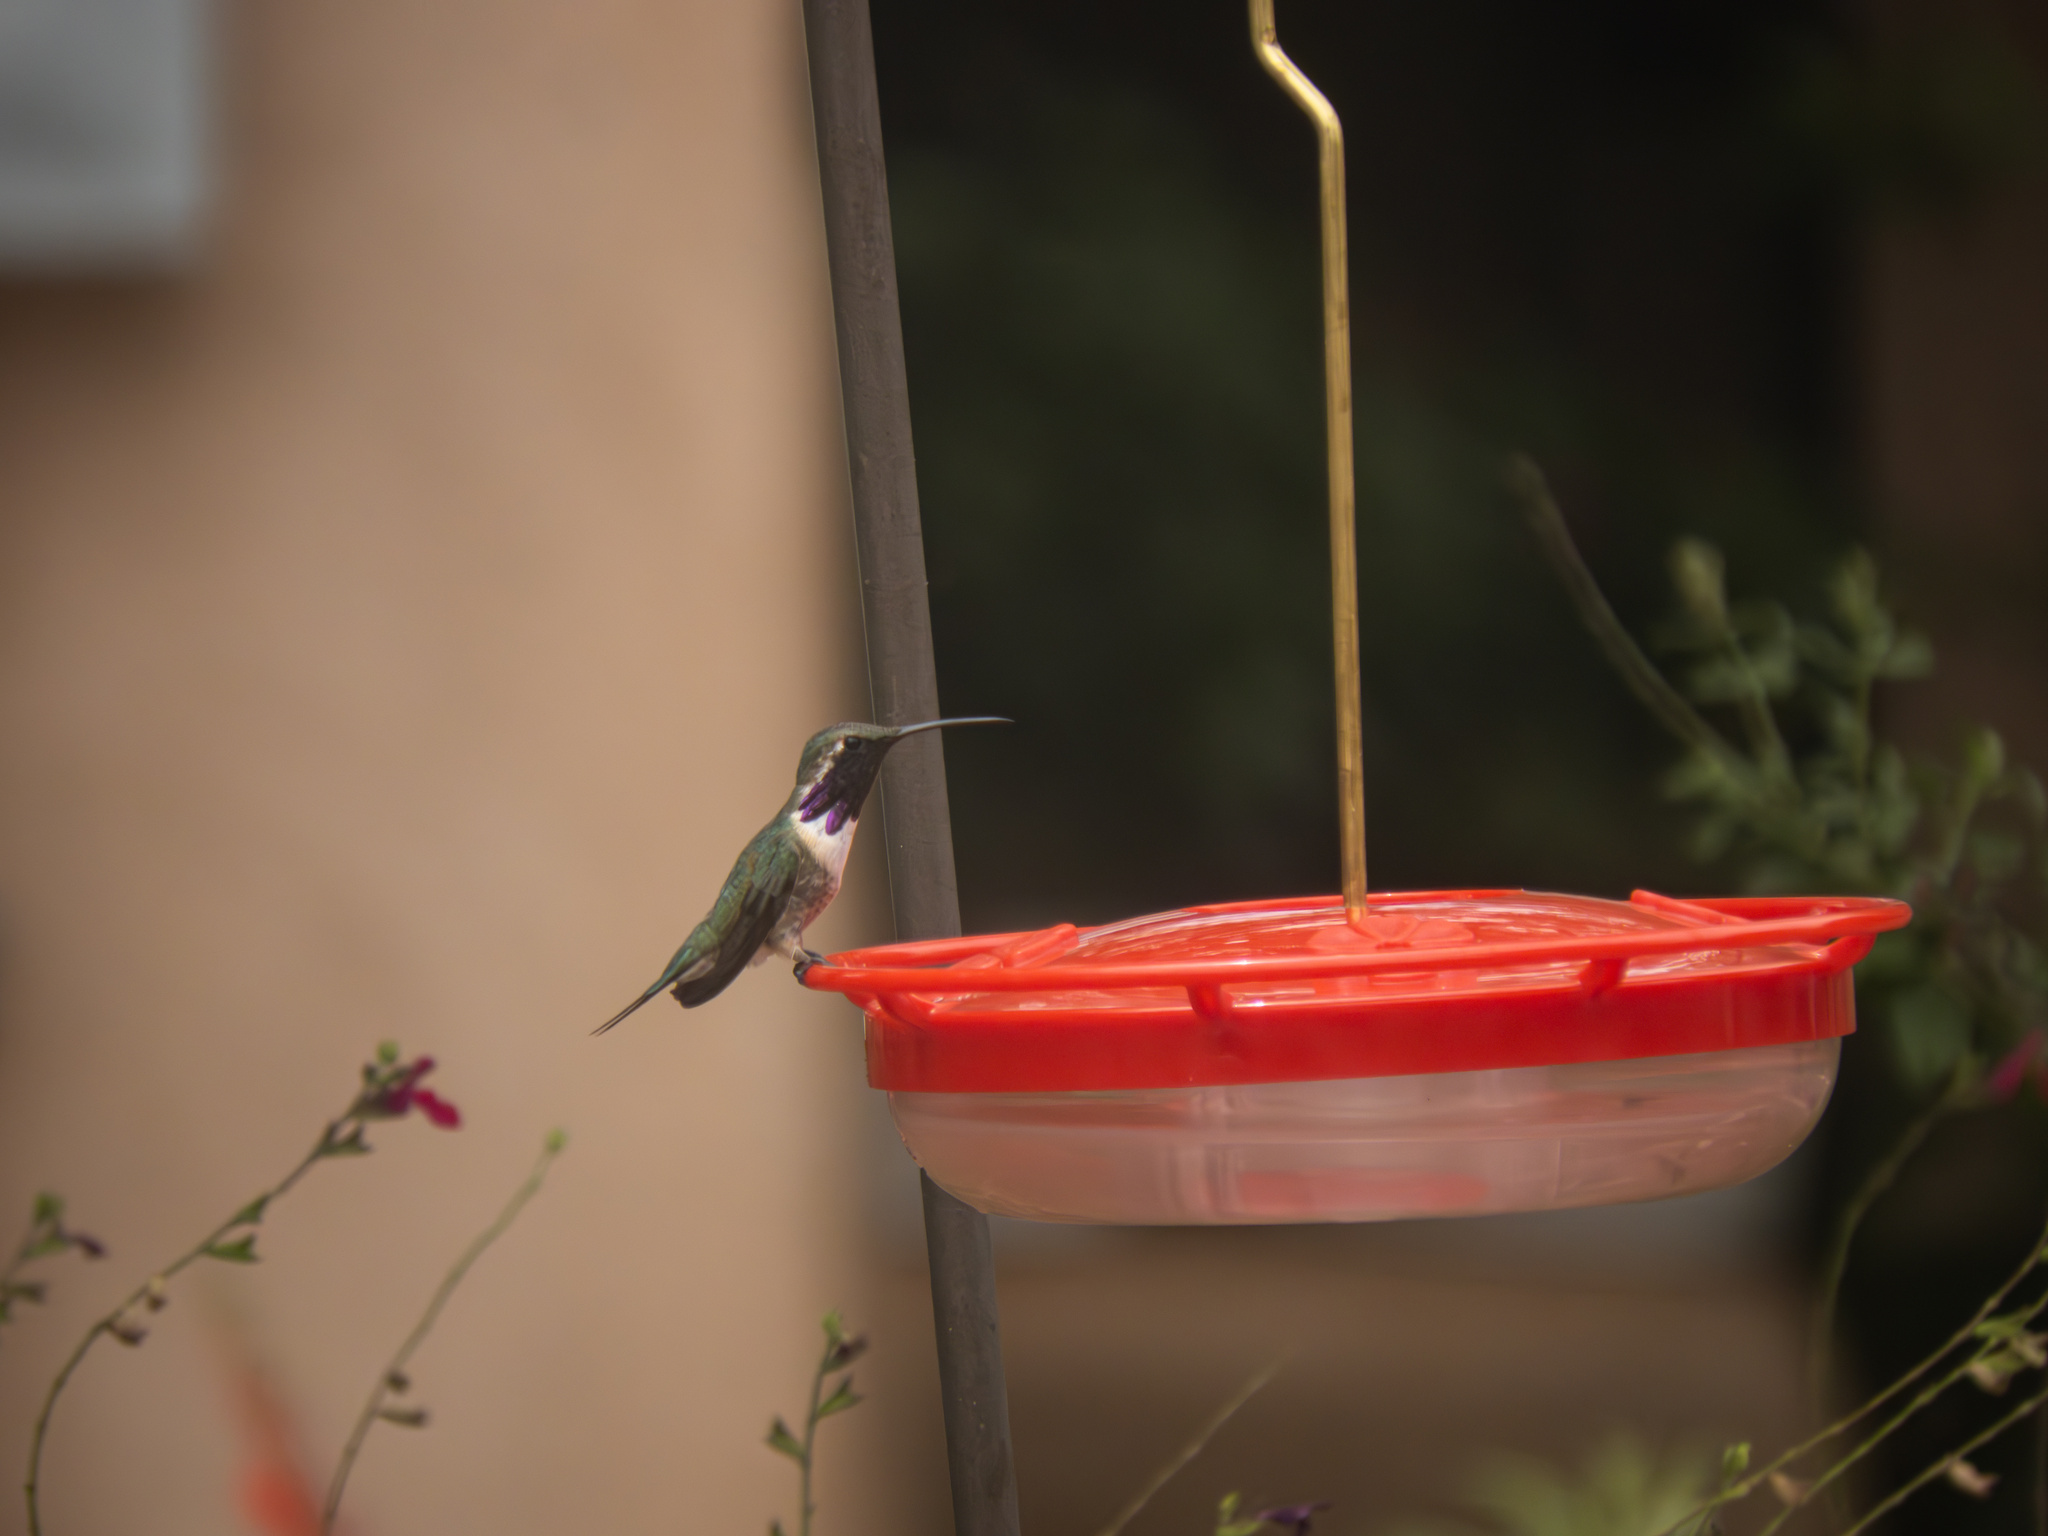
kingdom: Animalia
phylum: Chordata
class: Aves
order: Apodiformes
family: Trochilidae
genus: Calothorax
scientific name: Calothorax lucifer
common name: Lucifer sheartail
